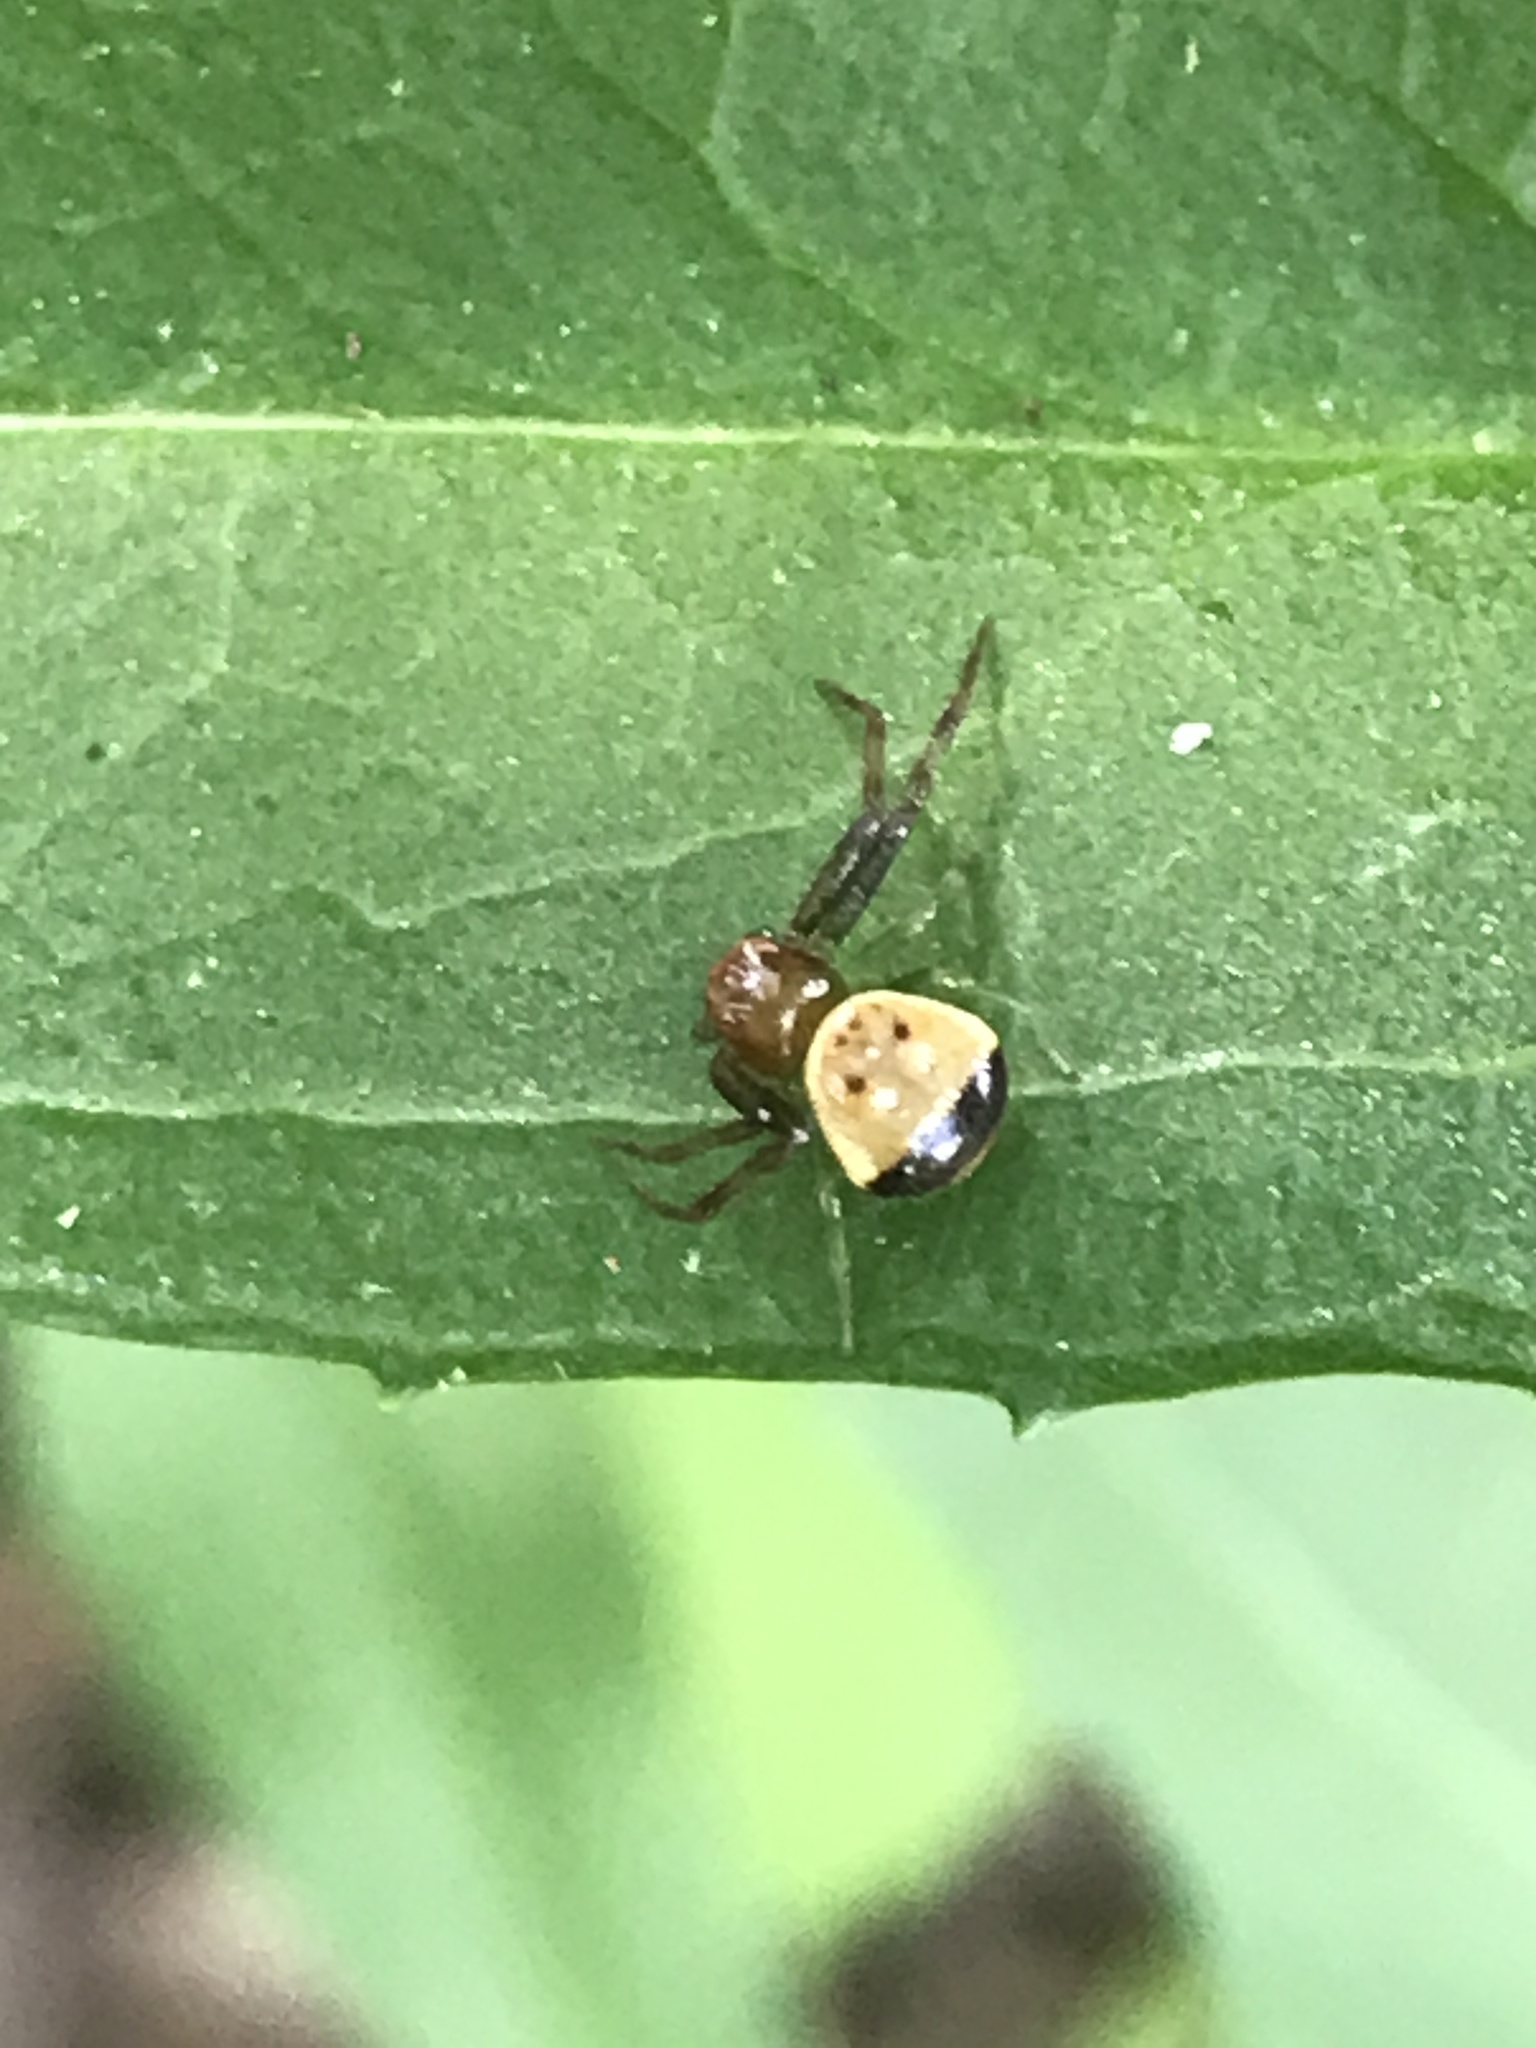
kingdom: Animalia
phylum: Arthropoda
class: Arachnida
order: Araneae
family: Thomisidae
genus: Synema
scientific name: Synema parvulum
